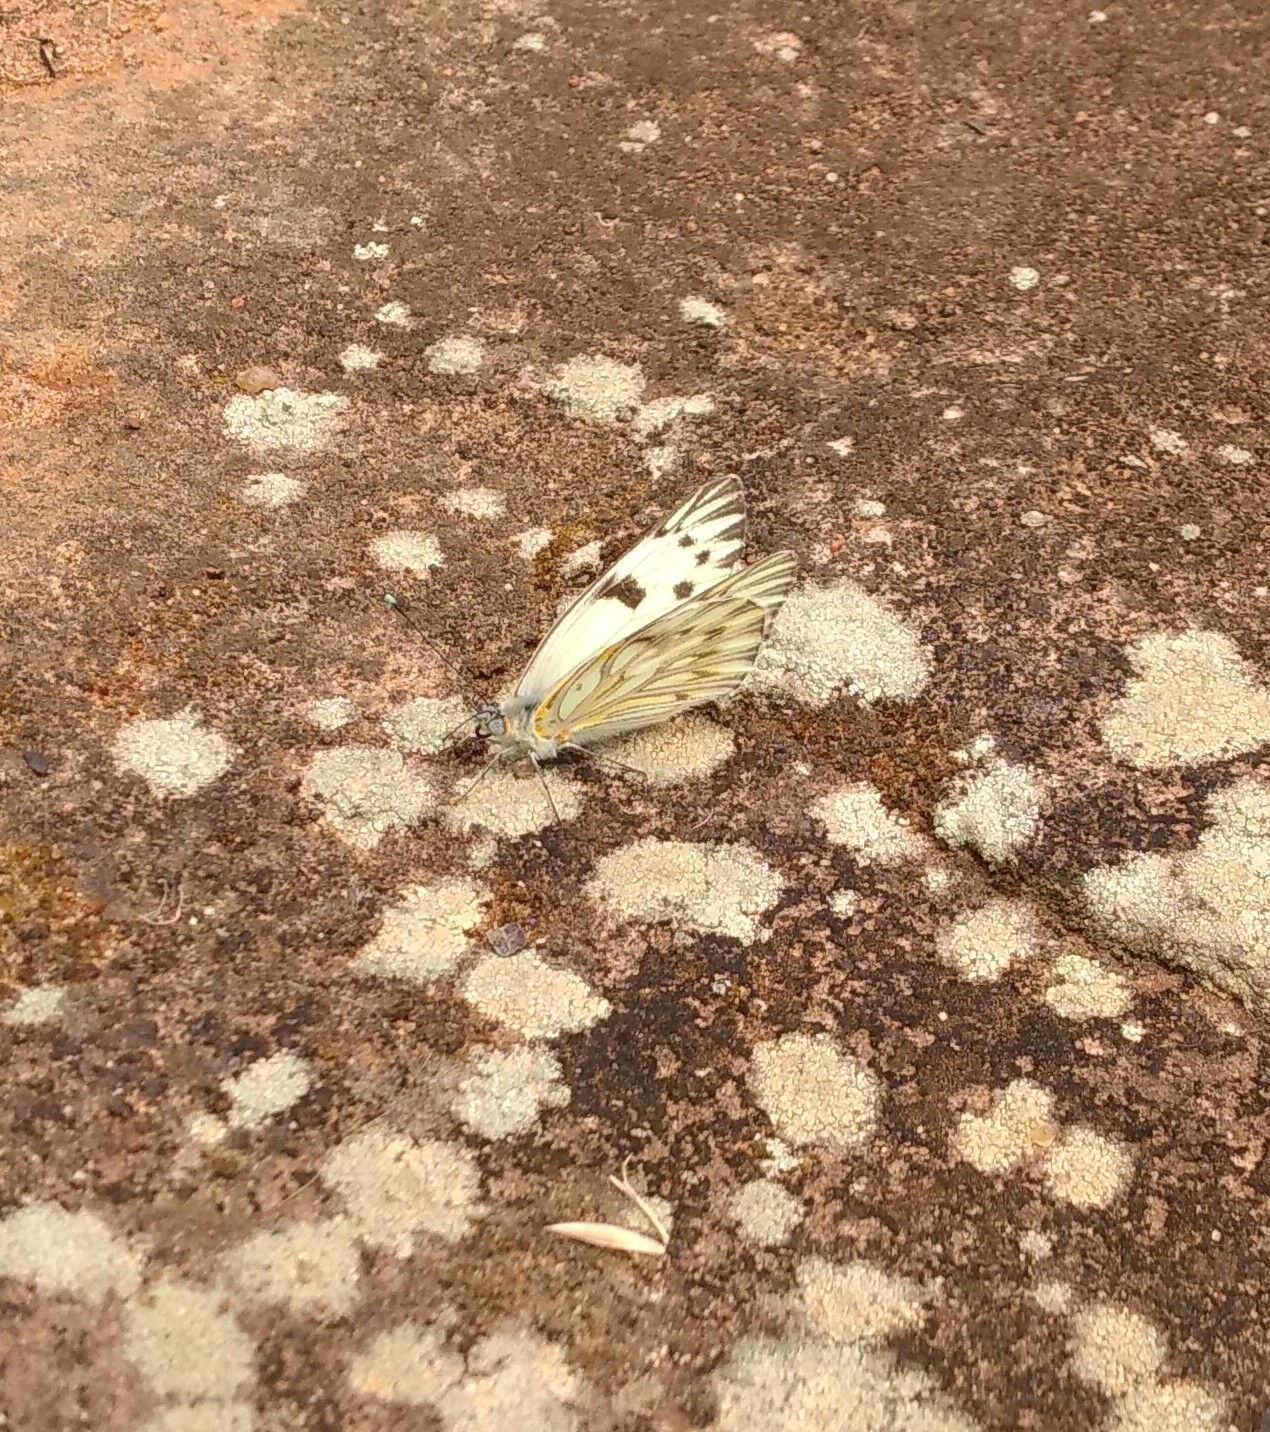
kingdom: Animalia
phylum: Arthropoda
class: Insecta
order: Lepidoptera
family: Pieridae
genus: Tatochila
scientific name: Tatochila autodice
